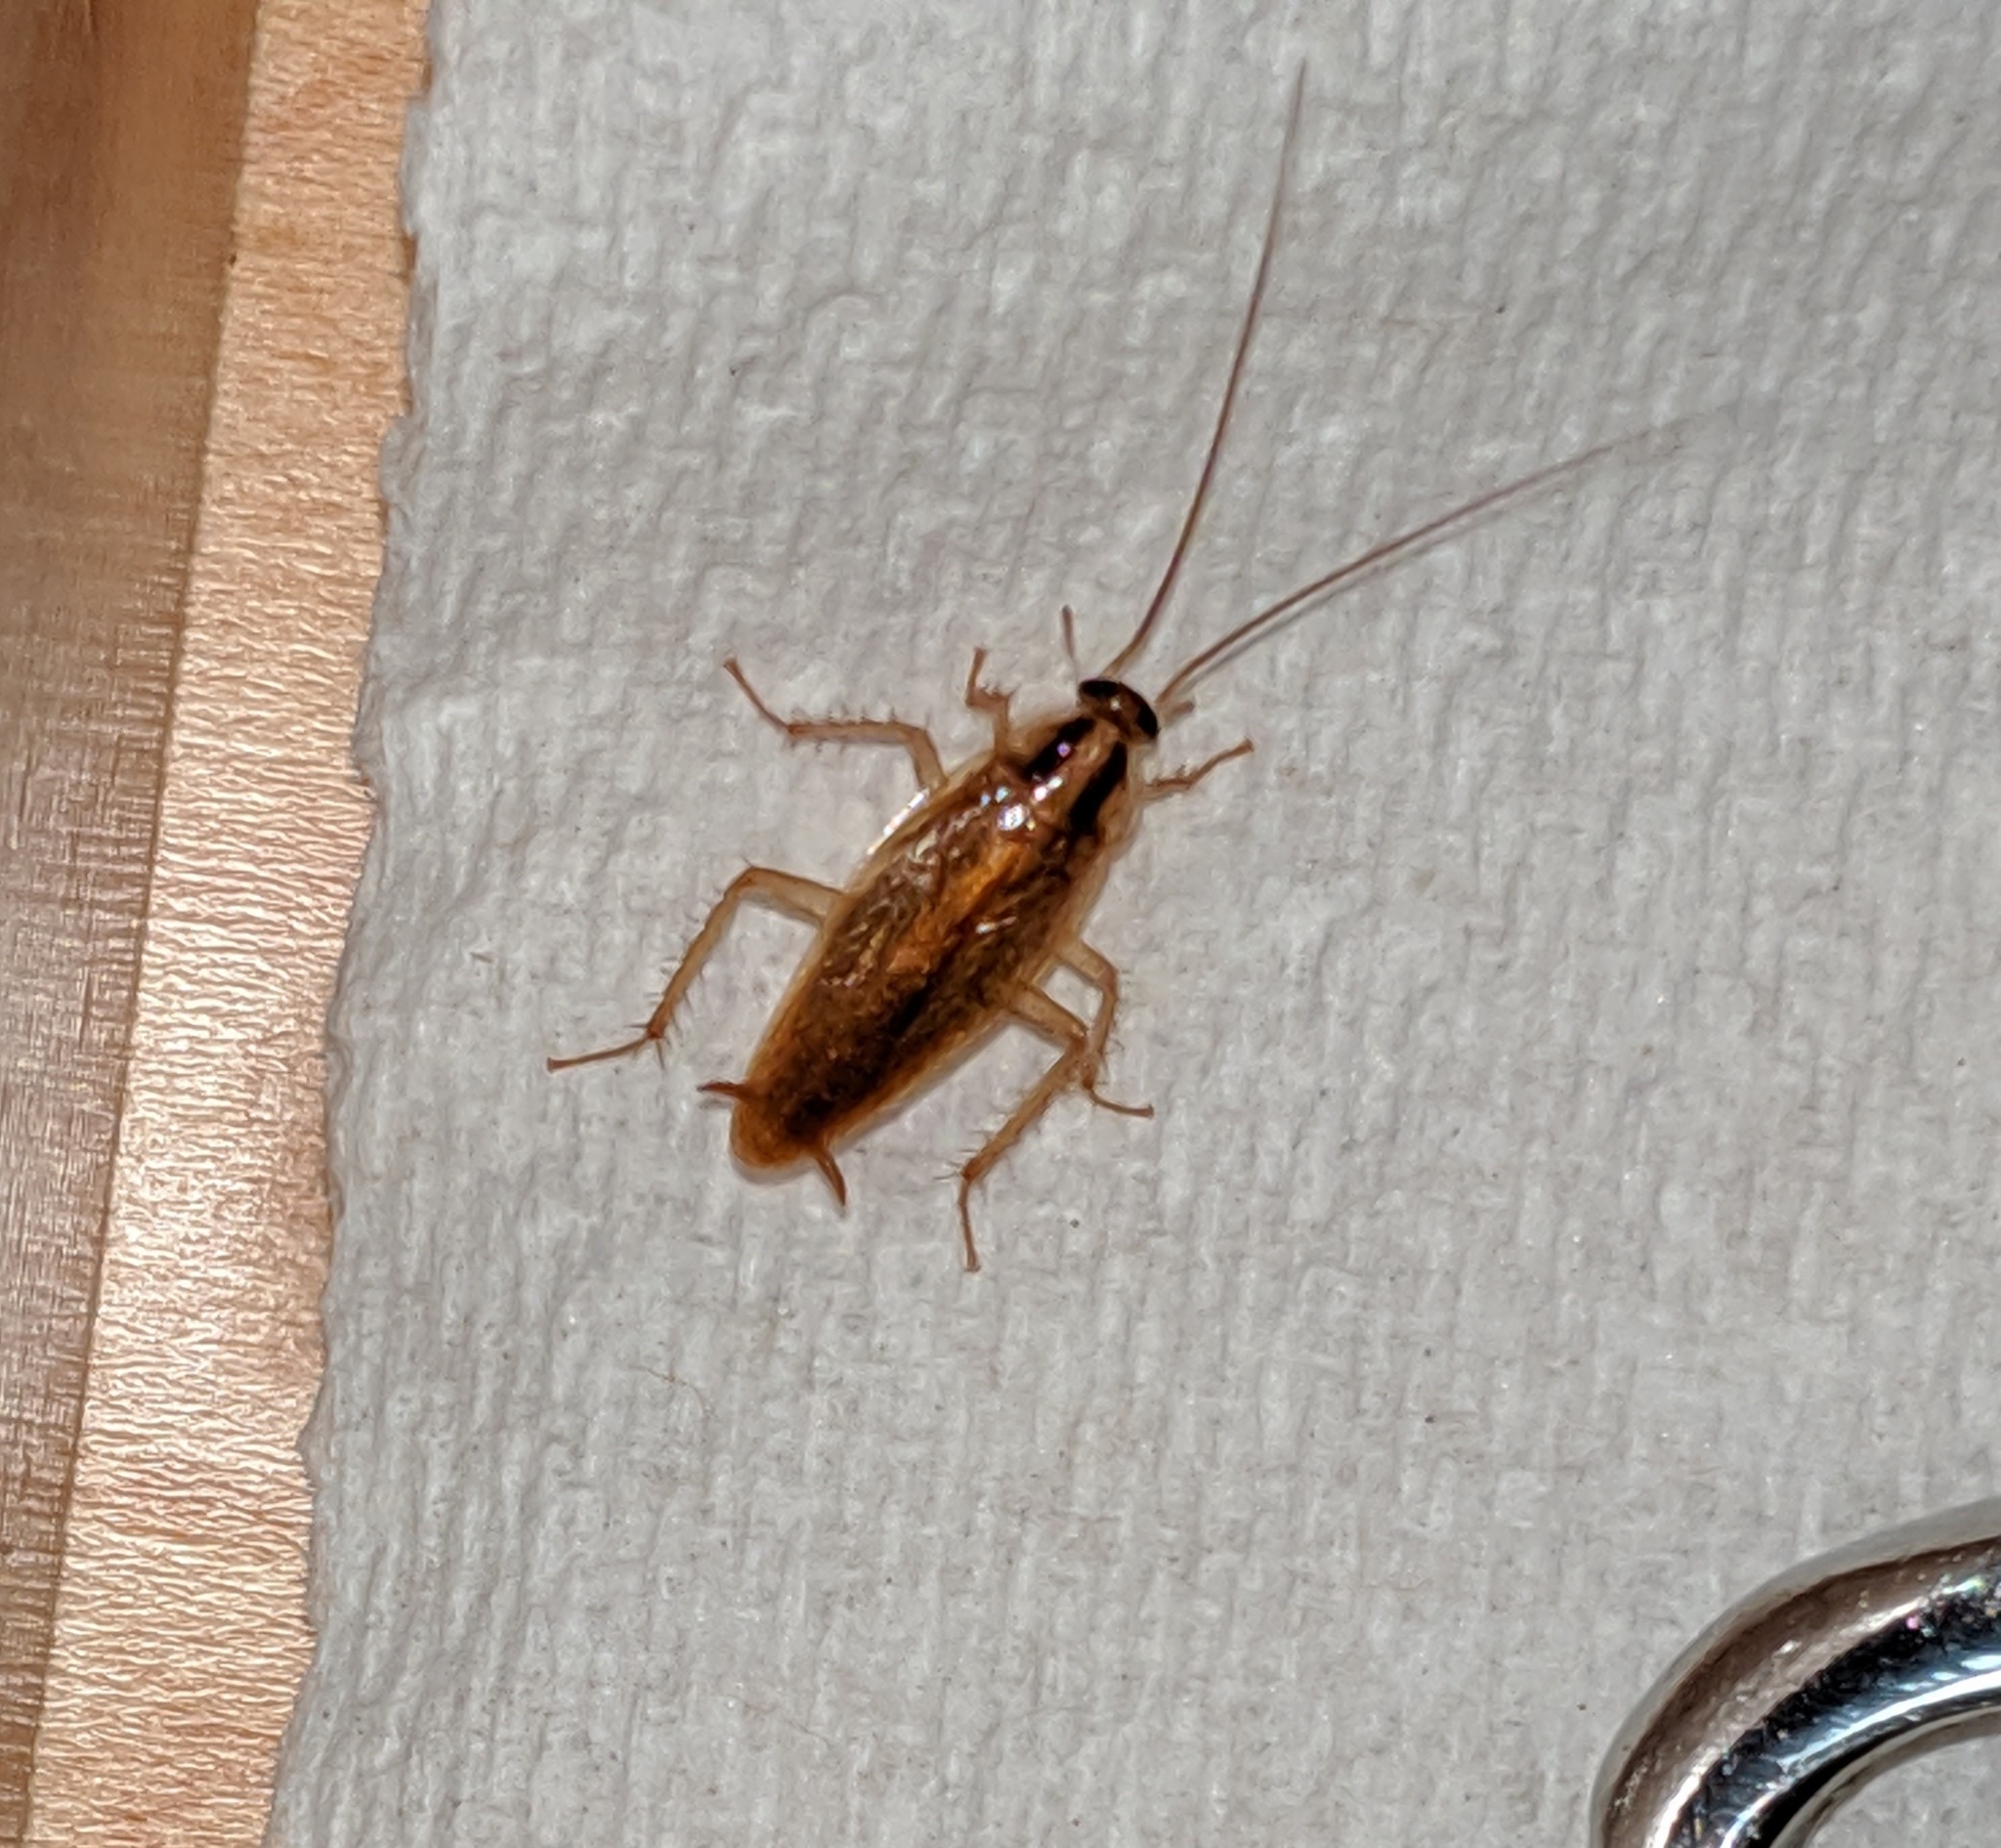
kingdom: Animalia
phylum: Arthropoda
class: Insecta
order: Blattodea
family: Ectobiidae
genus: Blattella
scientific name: Blattella germanica
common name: German cockroach
